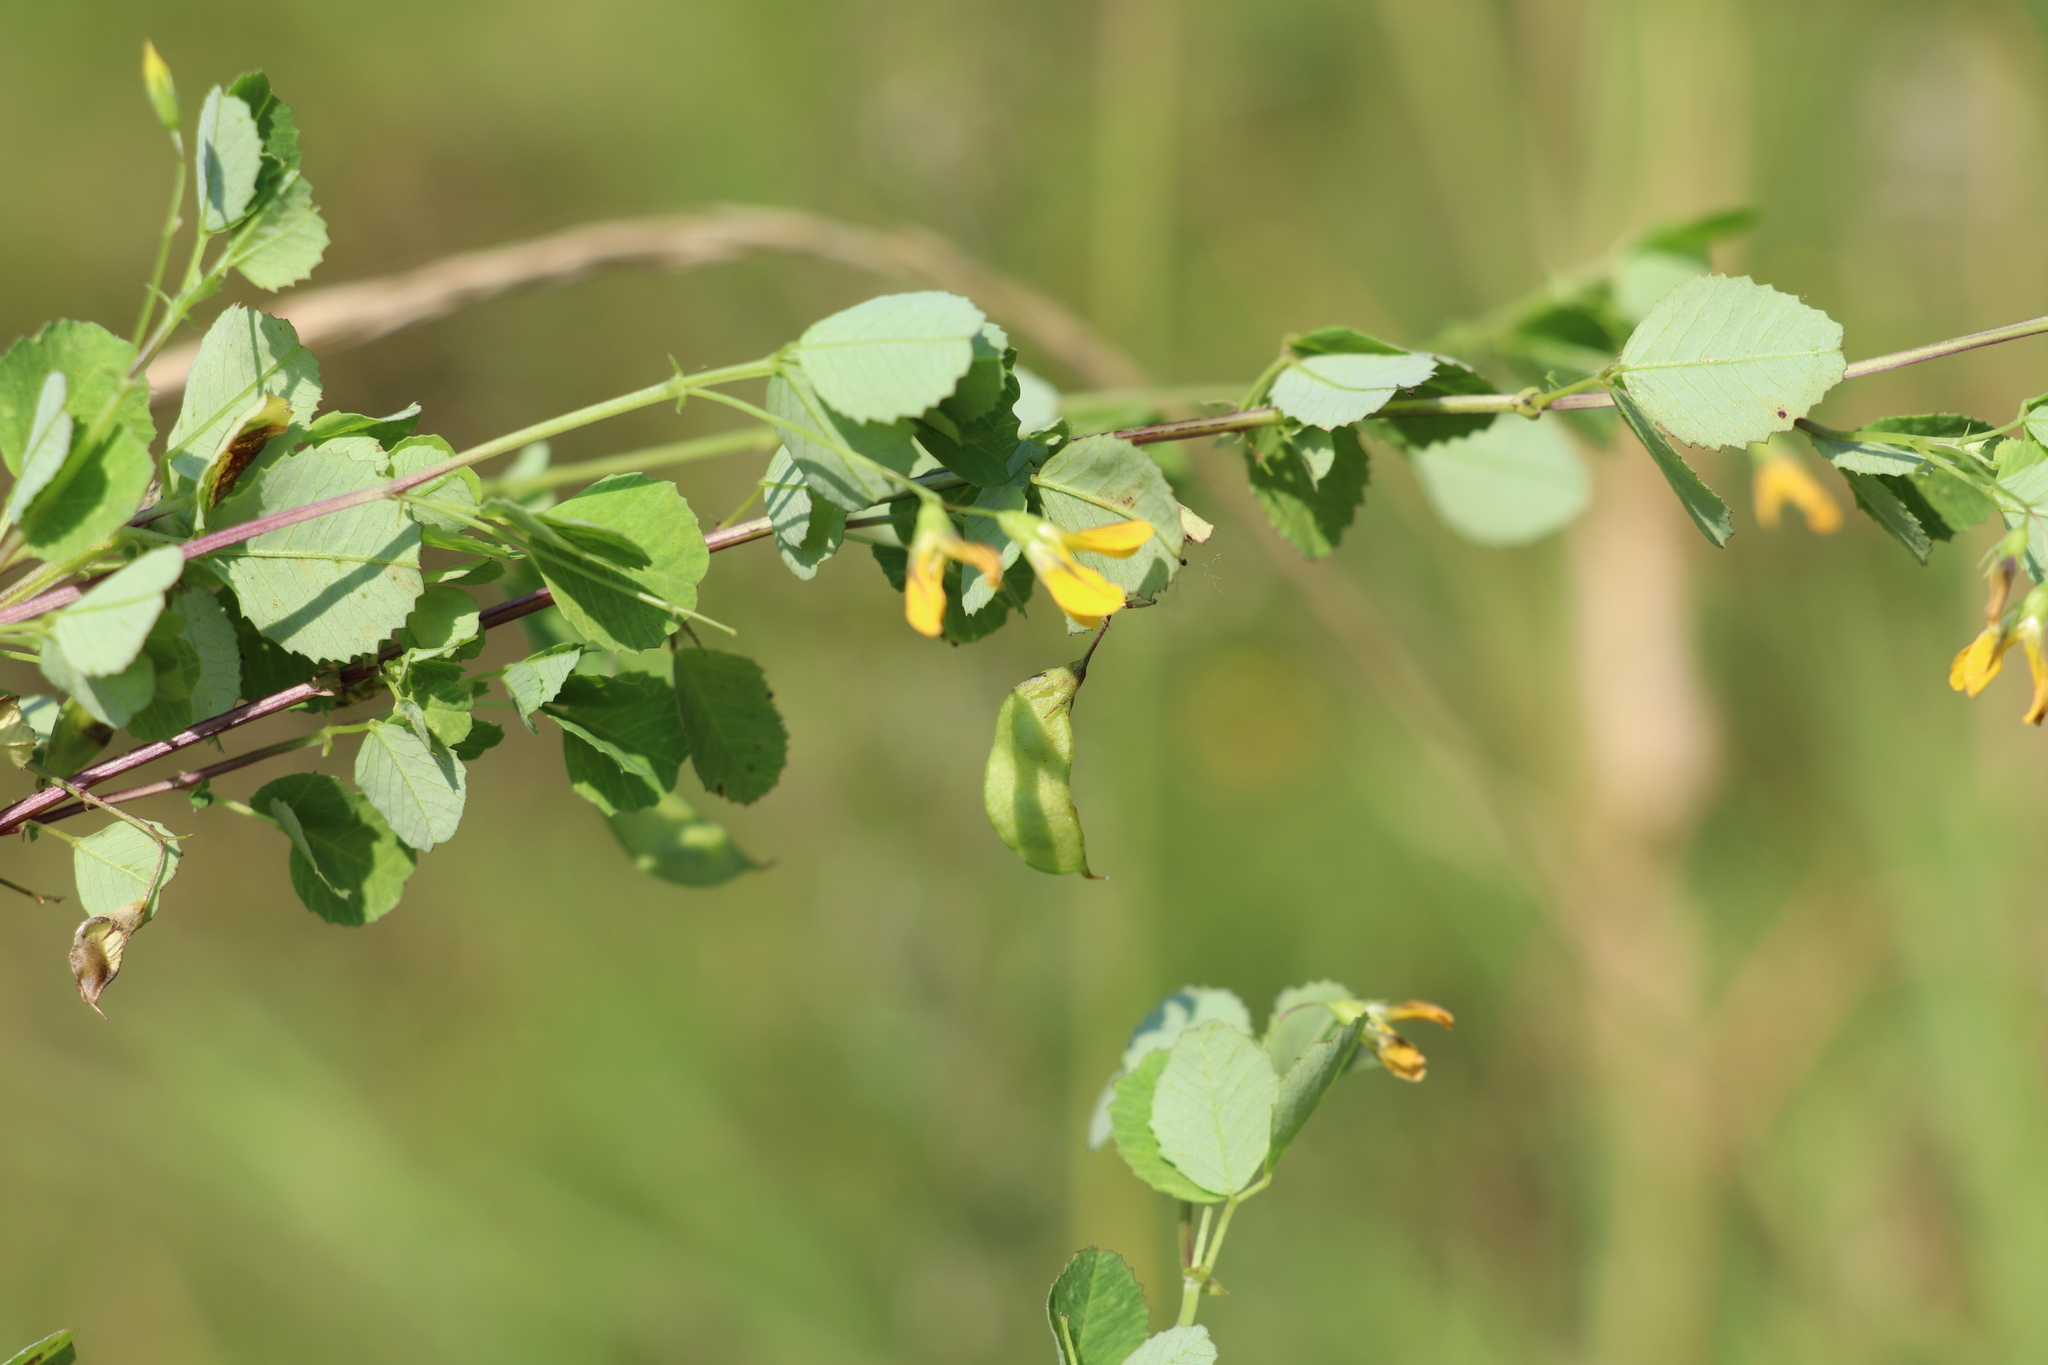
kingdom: Plantae
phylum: Tracheophyta
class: Magnoliopsida
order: Fabales
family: Fabaceae
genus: Medicago
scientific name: Medicago platycarpos
